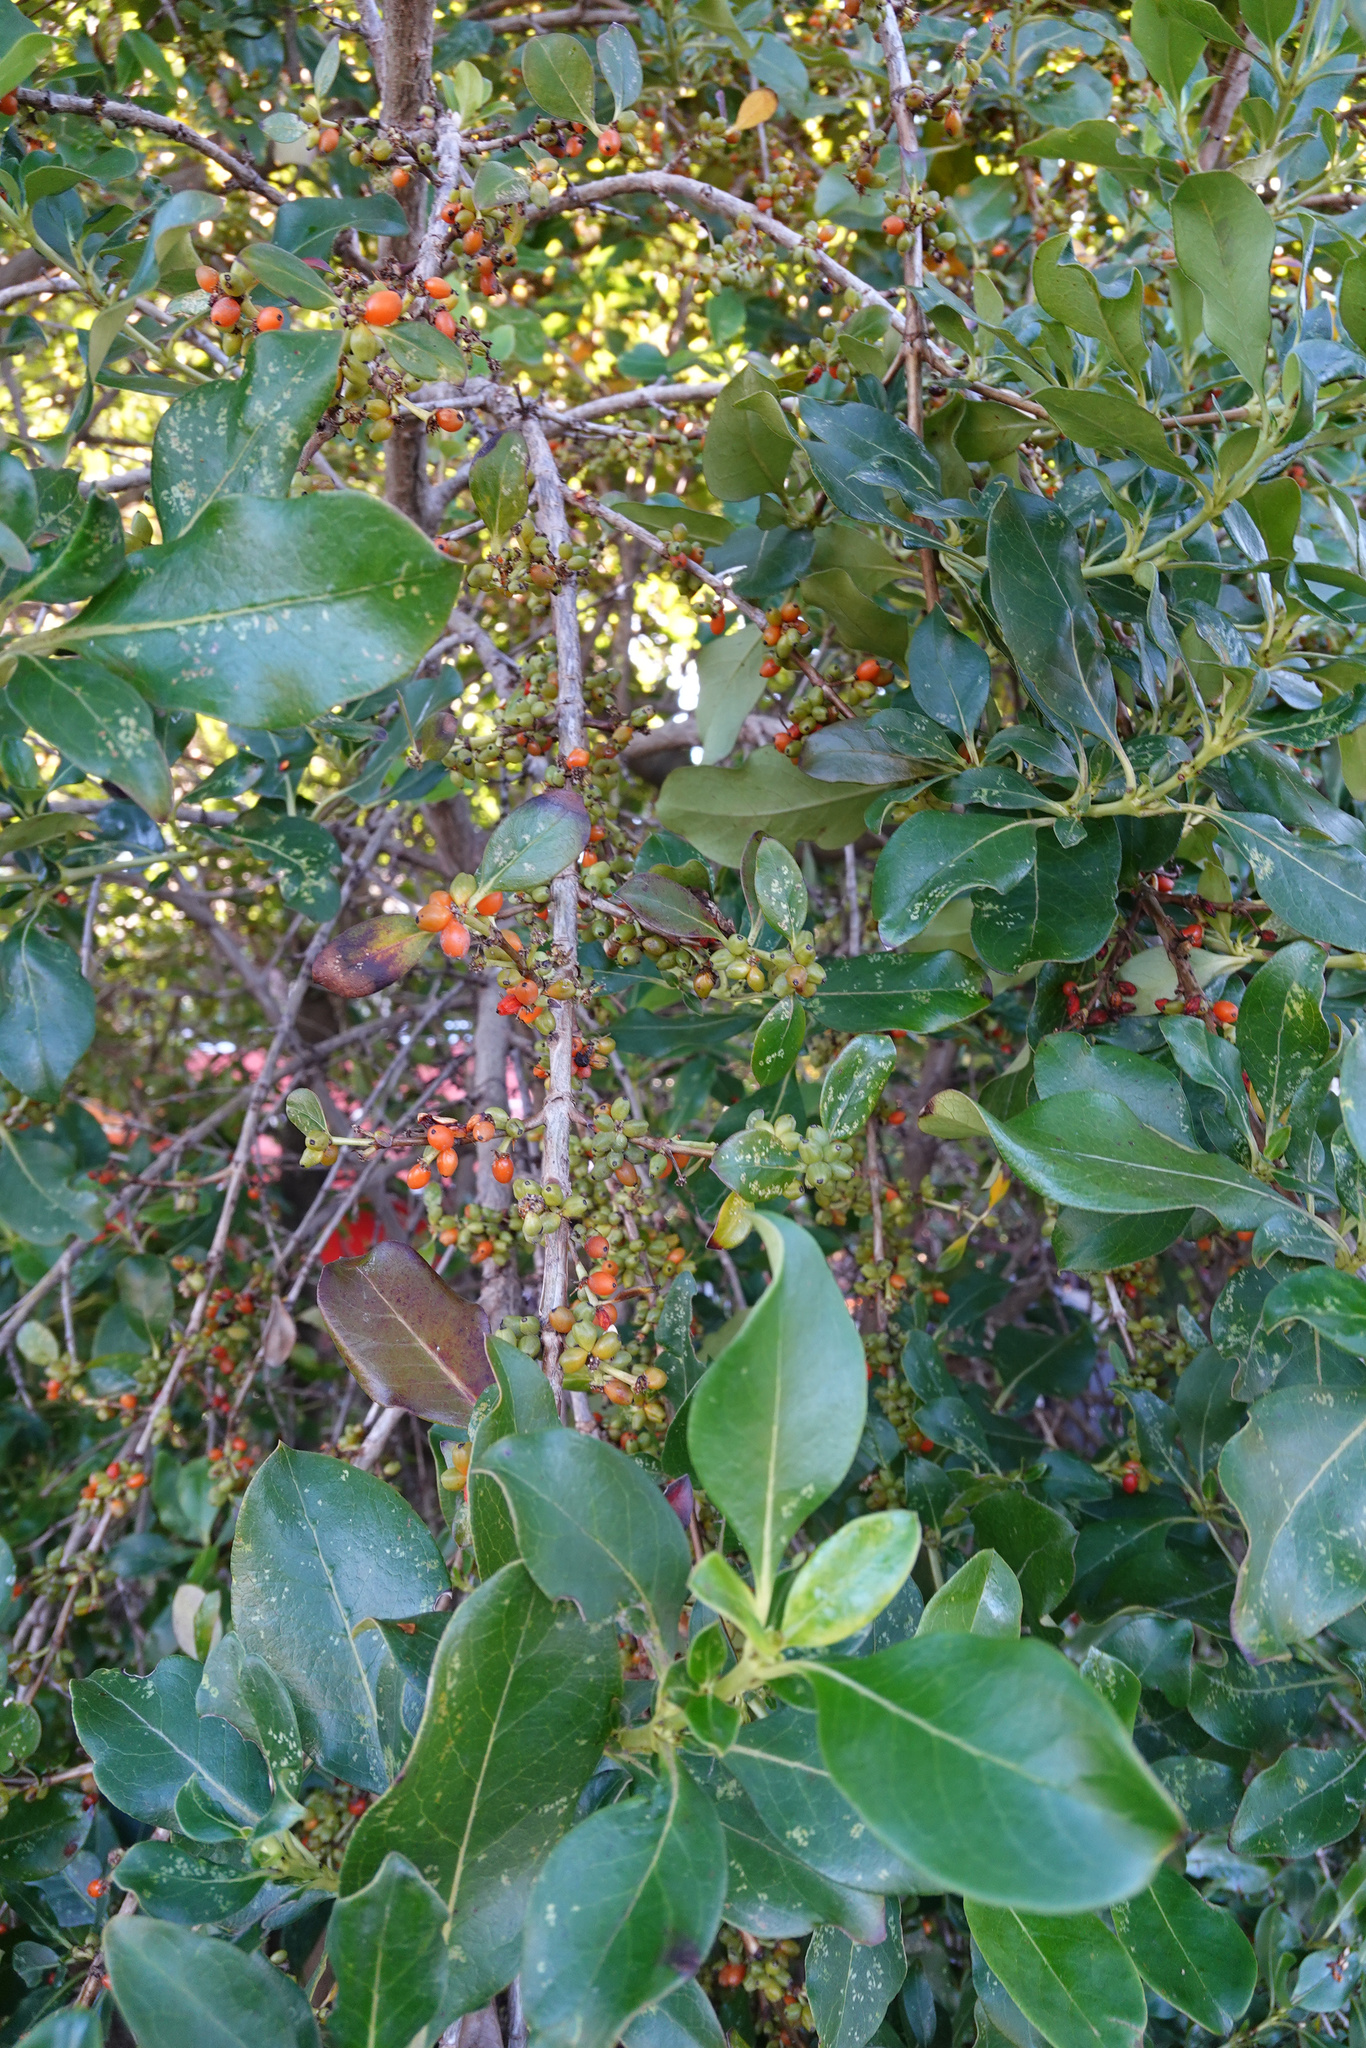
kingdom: Plantae
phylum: Tracheophyta
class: Magnoliopsida
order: Gentianales
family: Rubiaceae
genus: Coprosma
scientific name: Coprosma robusta
